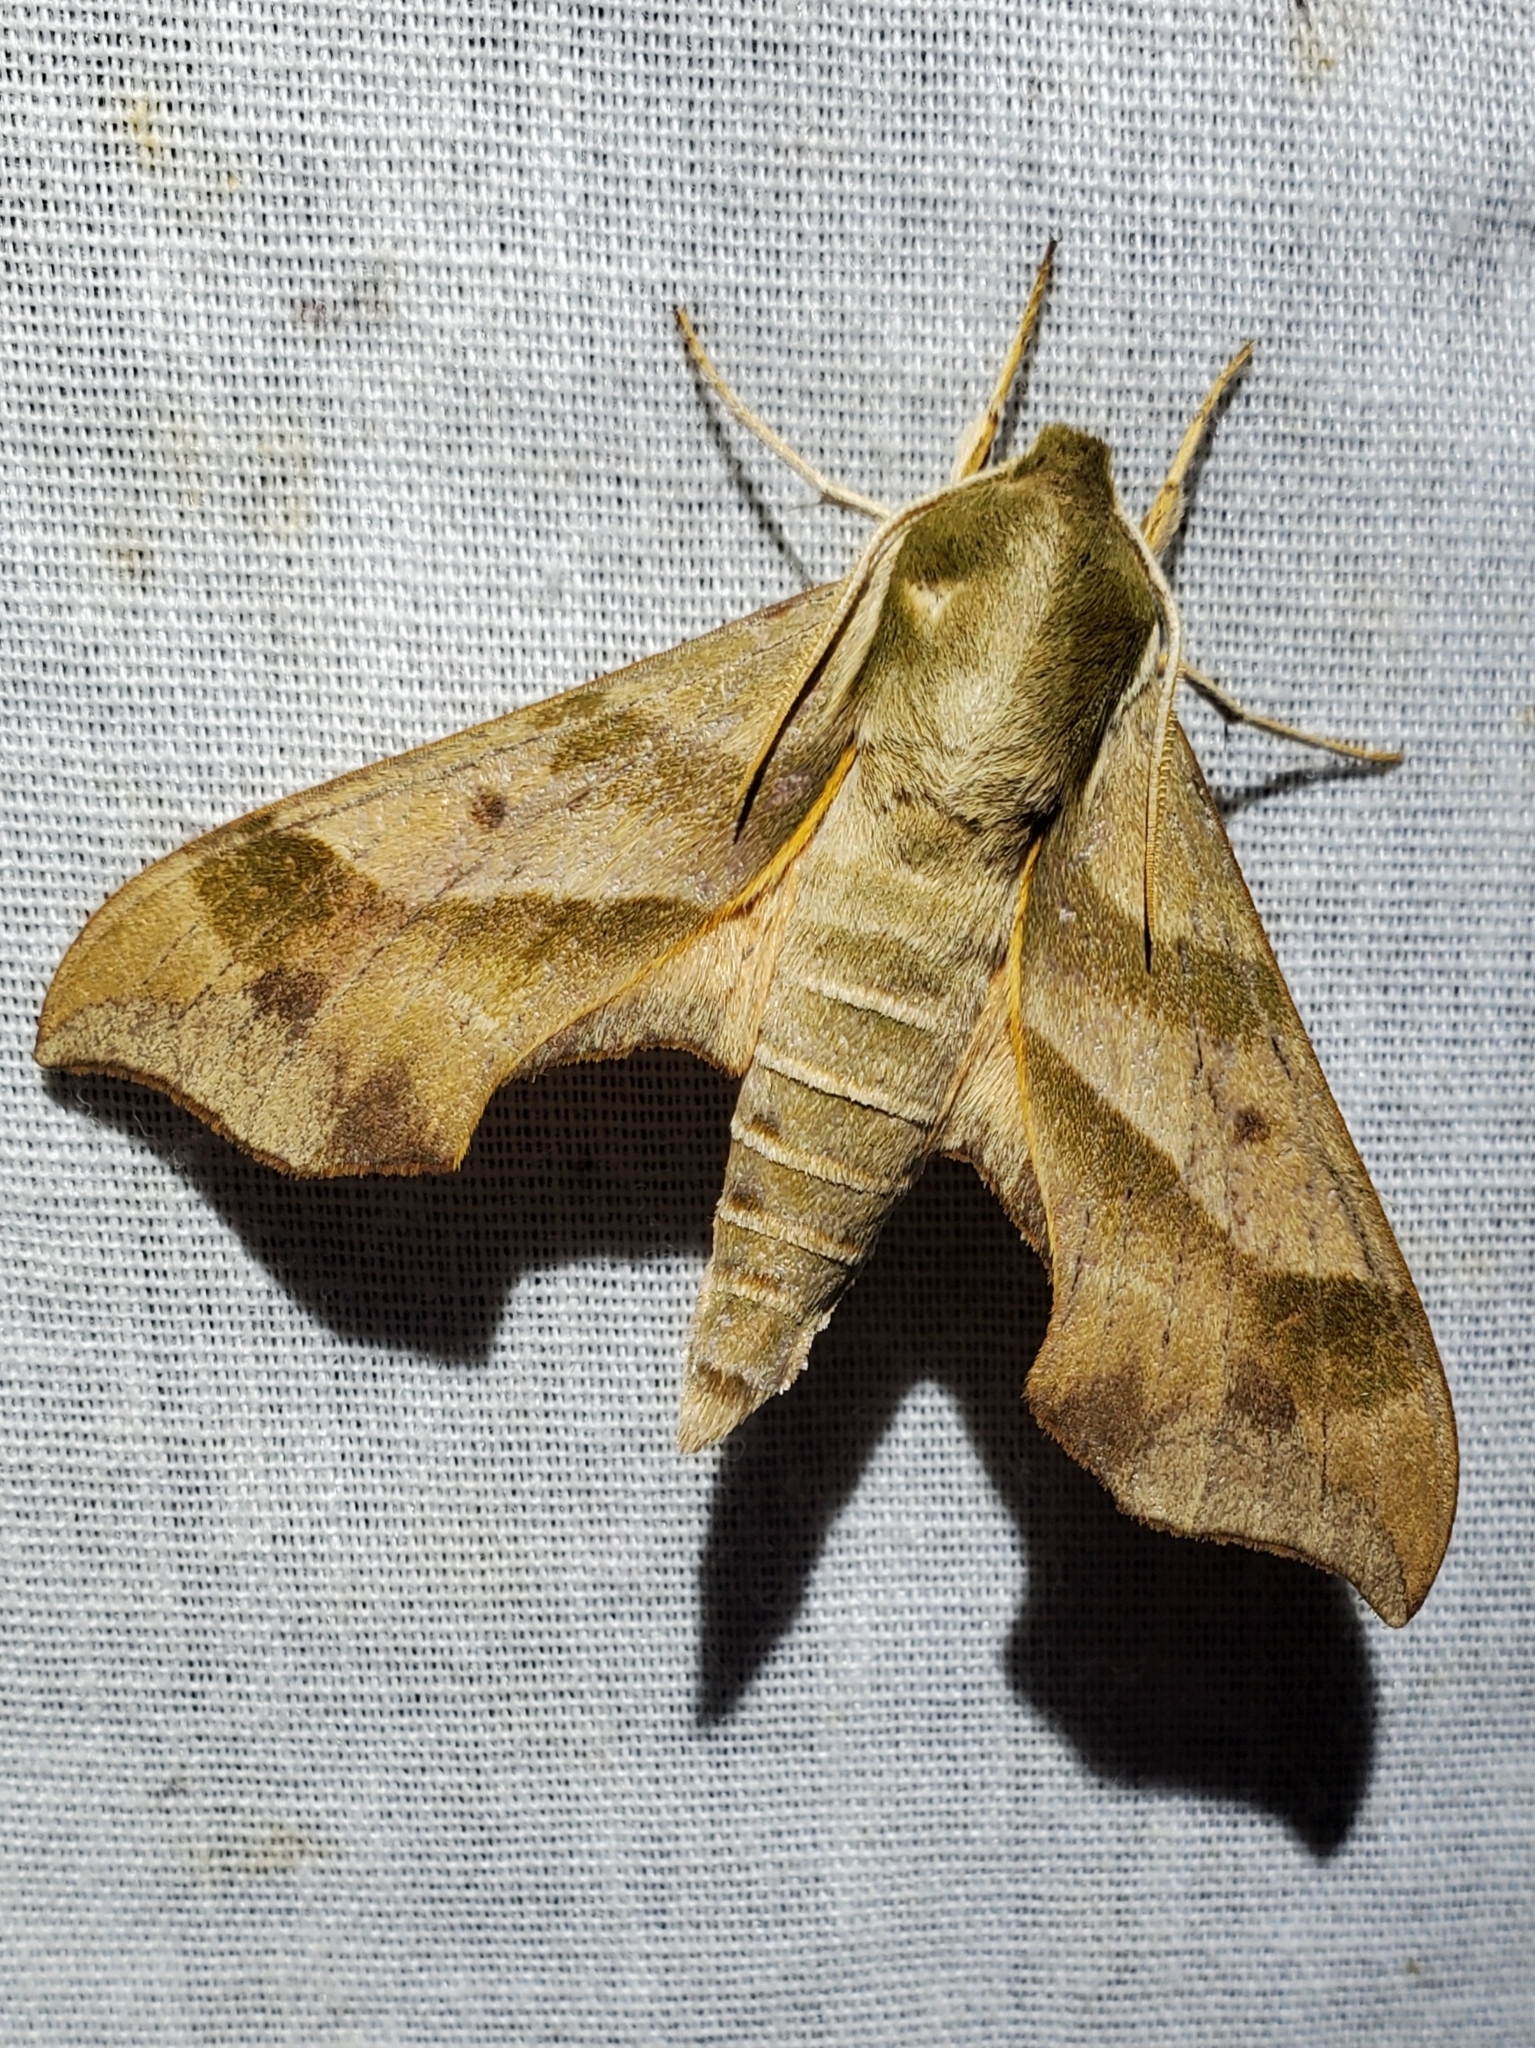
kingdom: Animalia
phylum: Arthropoda
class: Insecta
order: Lepidoptera
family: Sphingidae
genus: Darapsa
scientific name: Darapsa myron
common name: Hog sphinx
